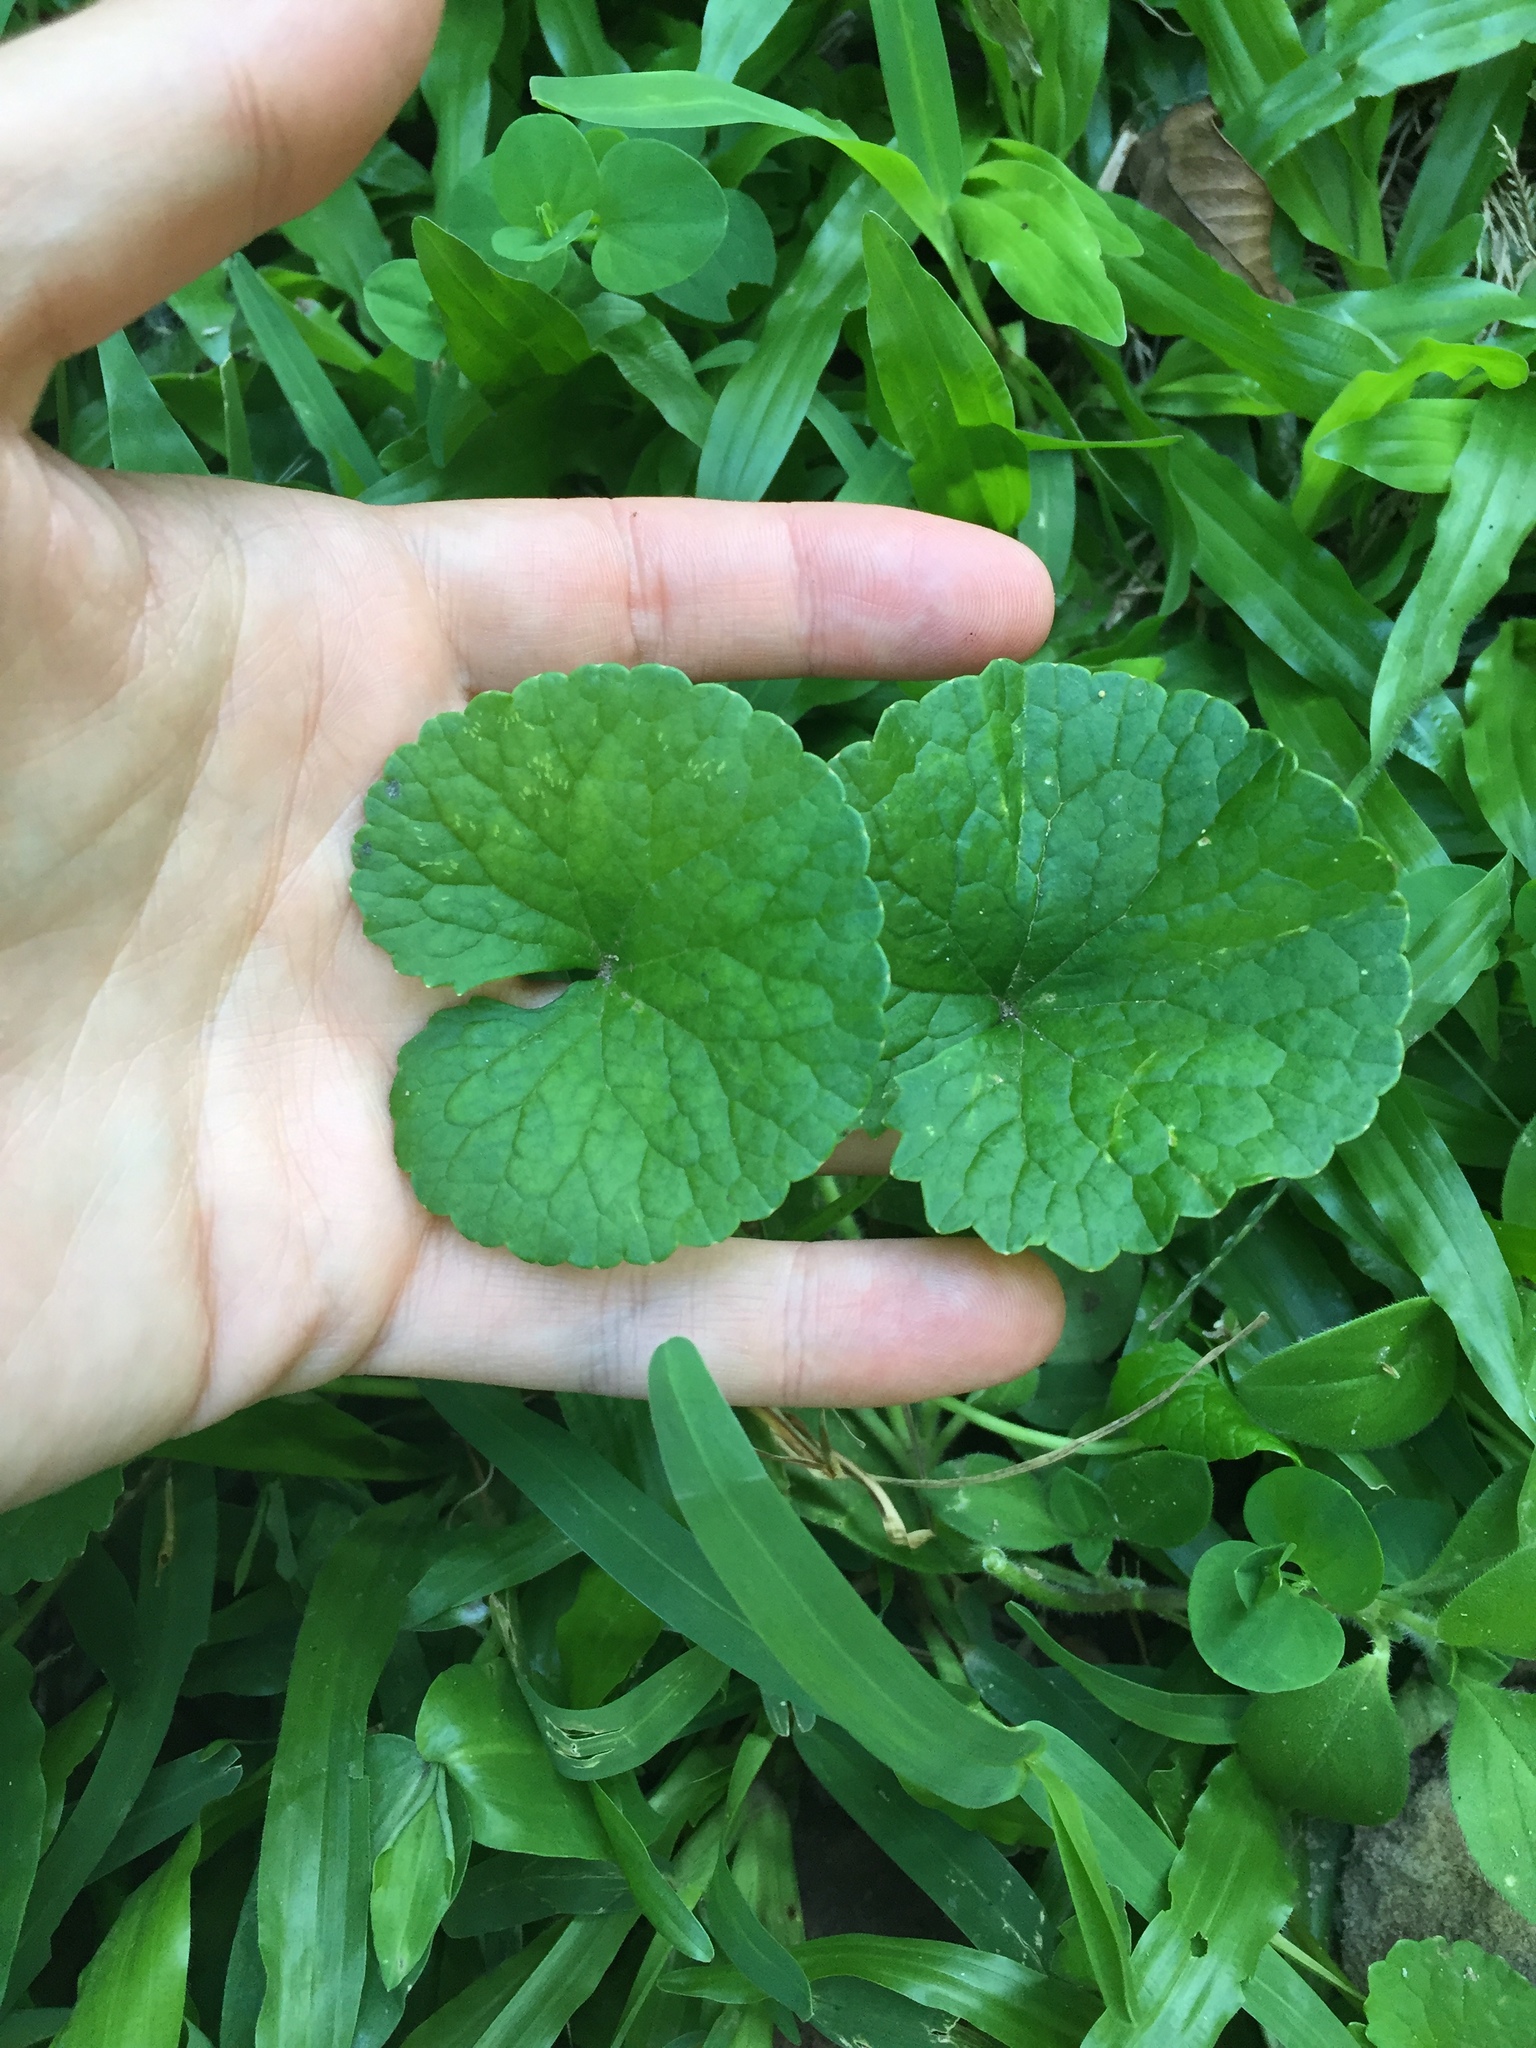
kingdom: Plantae
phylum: Tracheophyta
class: Magnoliopsida
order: Apiales
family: Apiaceae
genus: Centella
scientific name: Centella asiatica
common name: Spadeleaf
